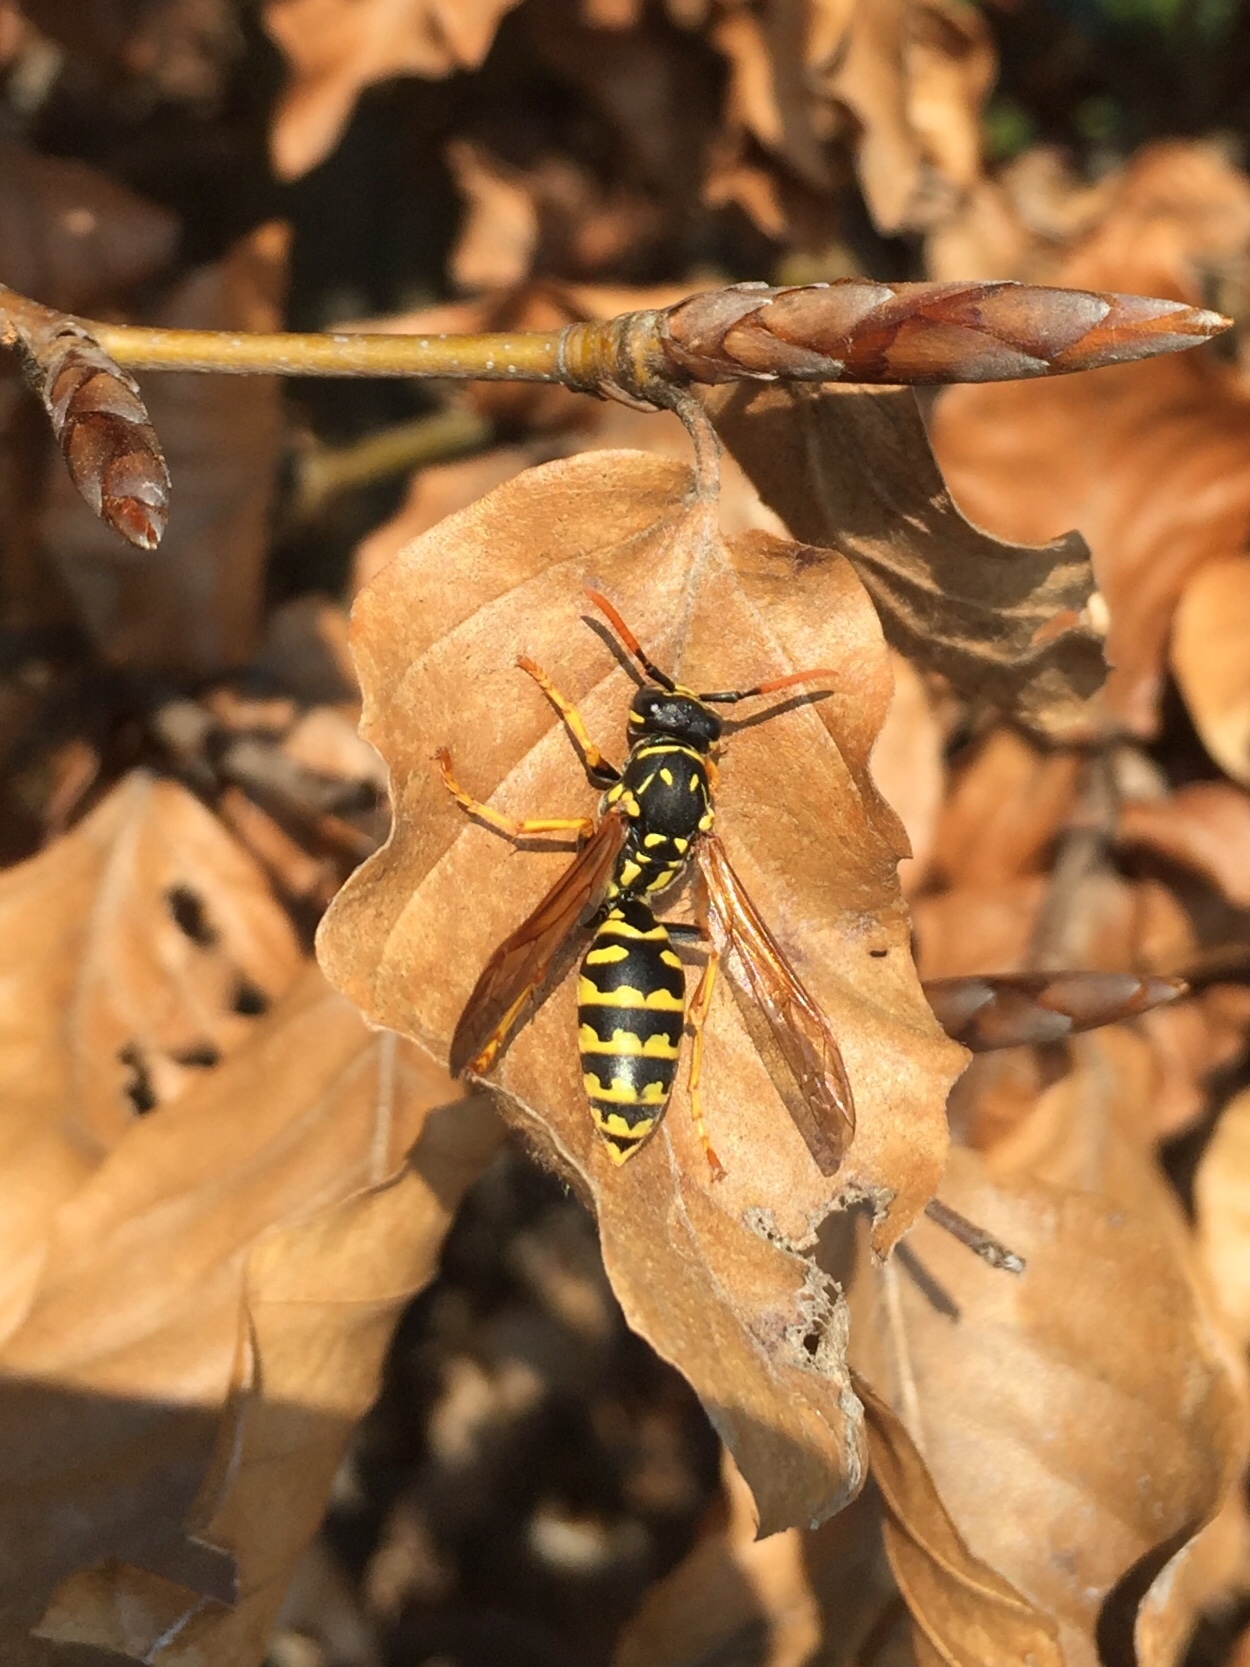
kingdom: Animalia
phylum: Arthropoda
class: Insecta
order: Hymenoptera
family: Eumenidae
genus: Polistes
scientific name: Polistes dominula
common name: Paper wasp
